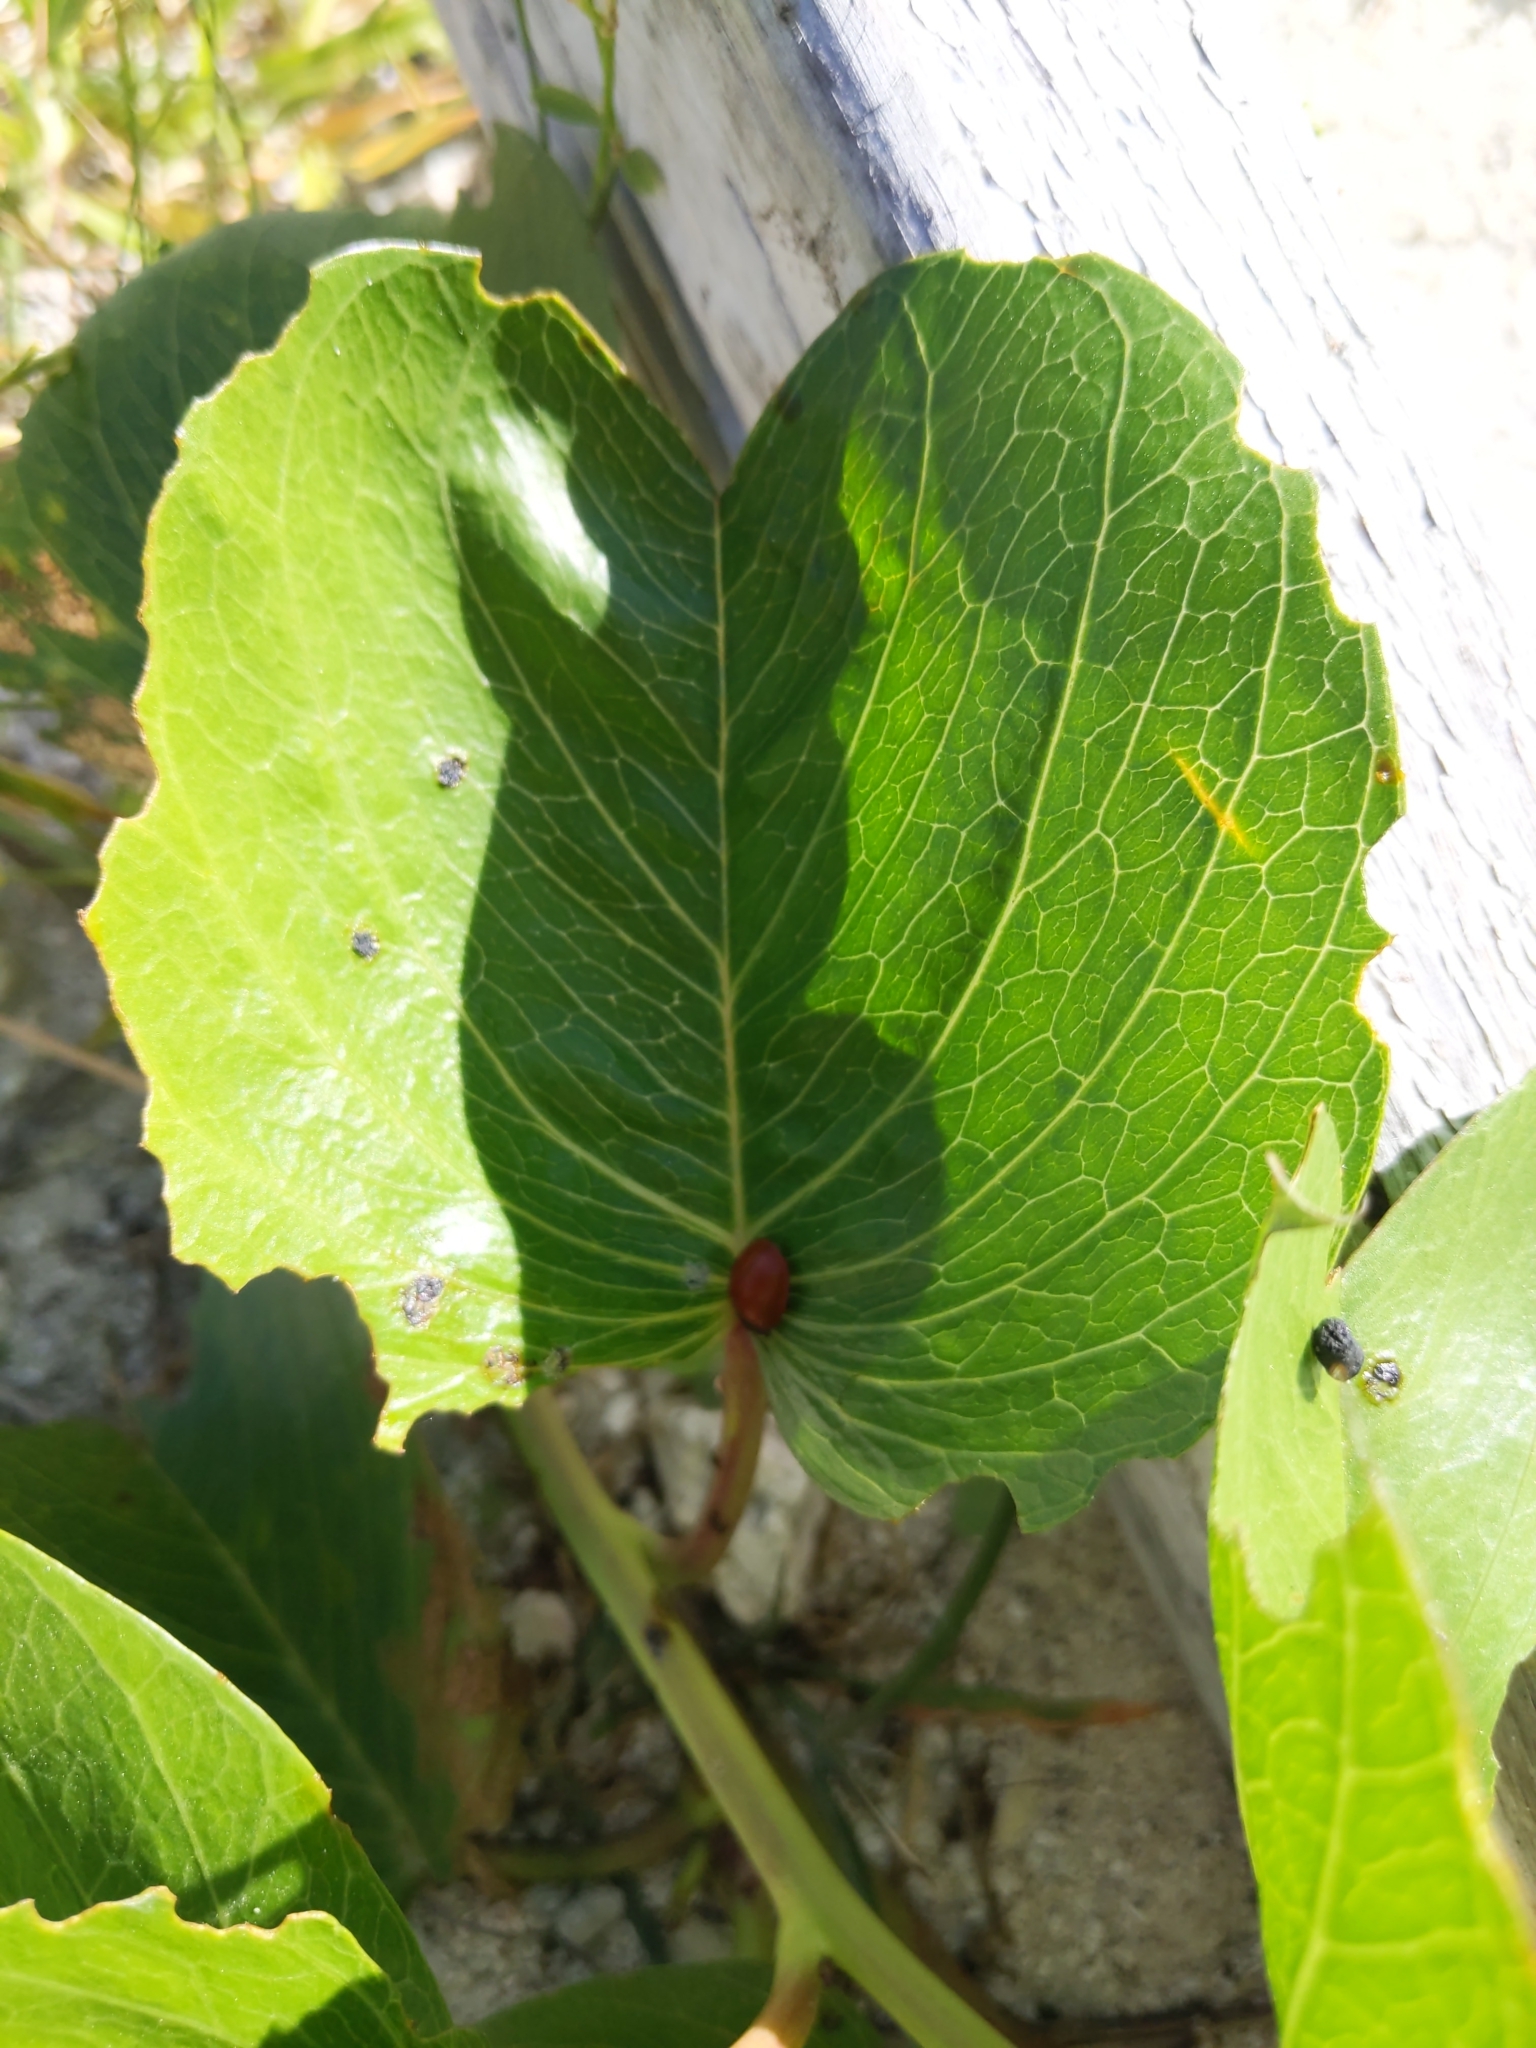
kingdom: Plantae
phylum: Tracheophyta
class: Magnoliopsida
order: Solanales
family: Convolvulaceae
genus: Ipomoea
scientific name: Ipomoea pes-caprae
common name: Beach morning glory
